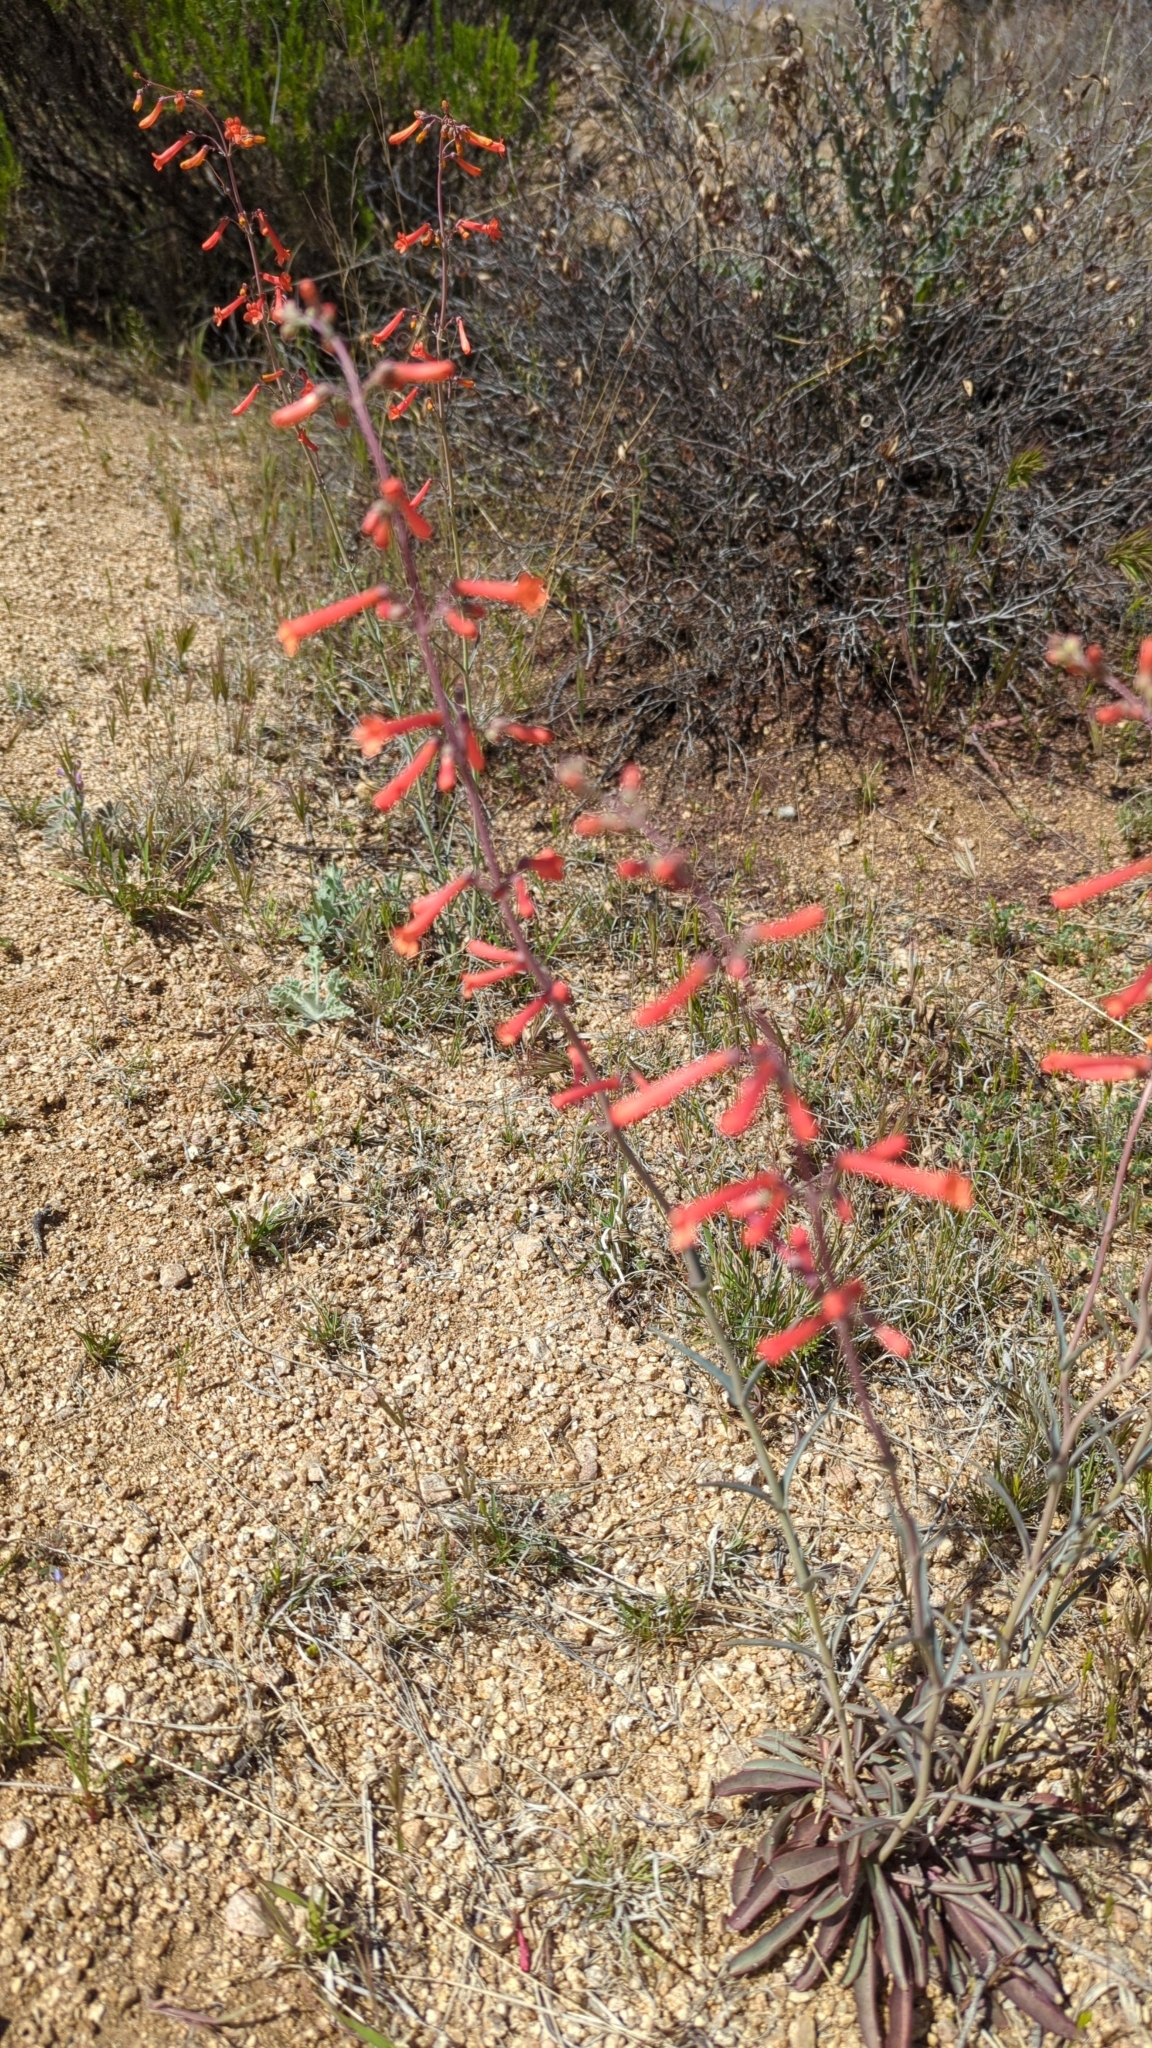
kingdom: Plantae
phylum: Tracheophyta
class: Magnoliopsida
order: Lamiales
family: Plantaginaceae
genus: Penstemon
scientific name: Penstemon subulatus
